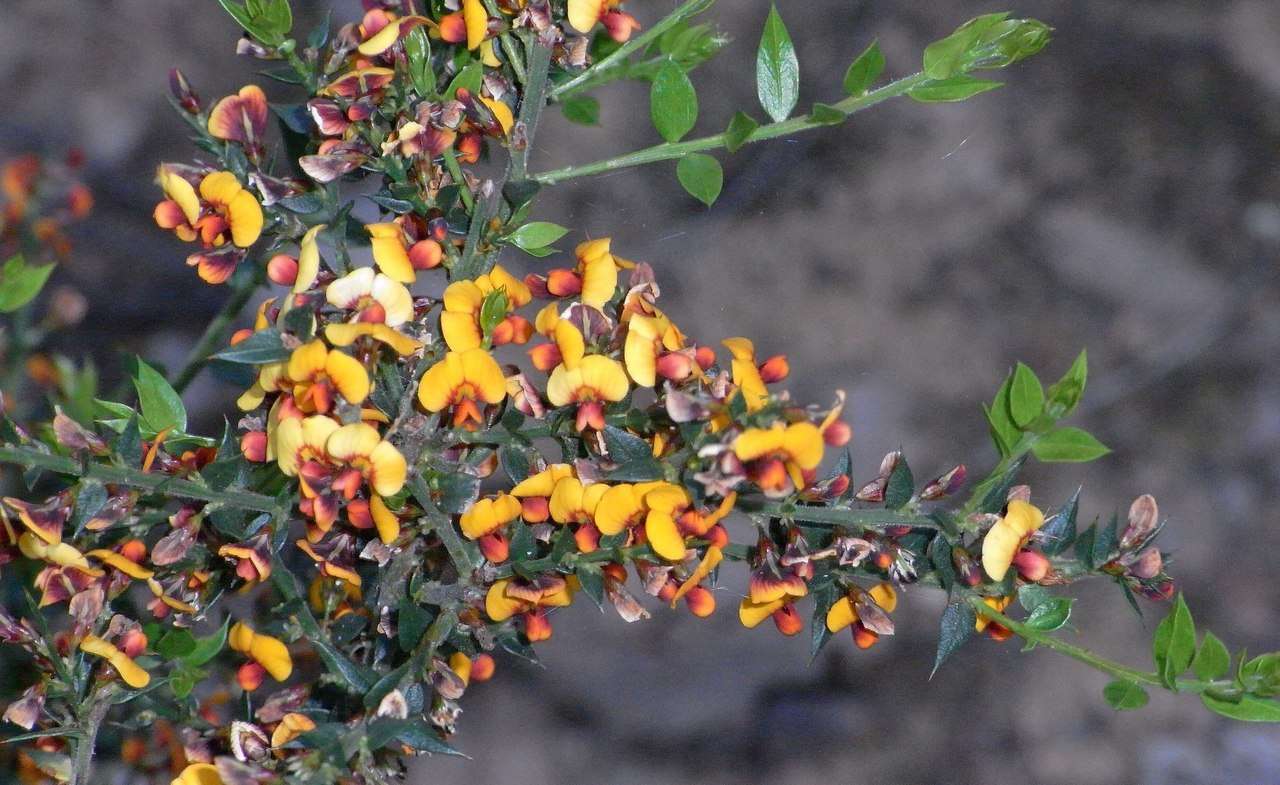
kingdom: Plantae
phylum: Tracheophyta
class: Magnoliopsida
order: Fabales
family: Fabaceae
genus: Daviesia
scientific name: Daviesia ulicifolia
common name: Gorse bitter-pea
